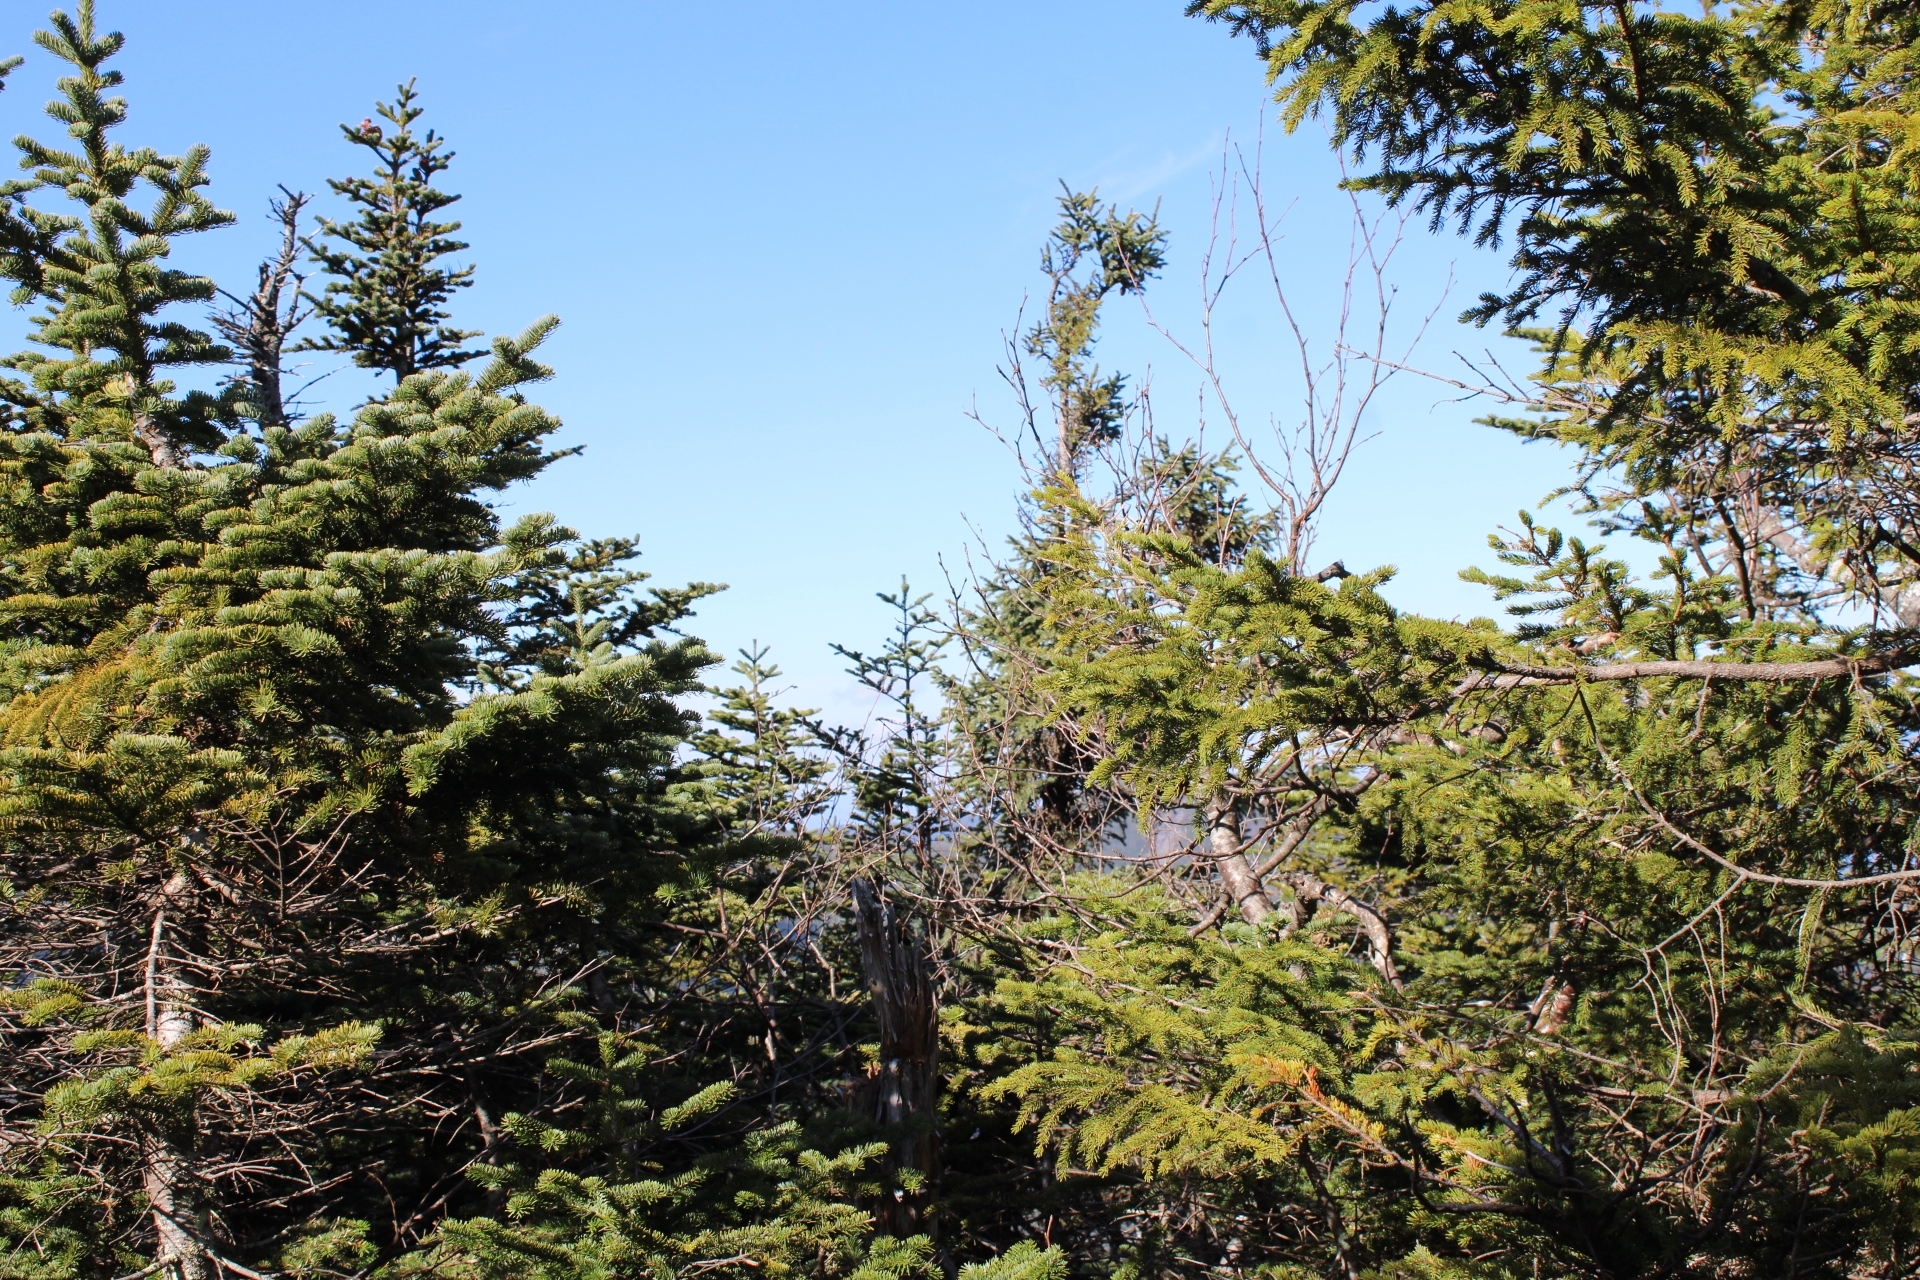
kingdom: Plantae
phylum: Tracheophyta
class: Pinopsida
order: Pinales
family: Pinaceae
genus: Abies
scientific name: Abies balsamea
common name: Balsam fir
